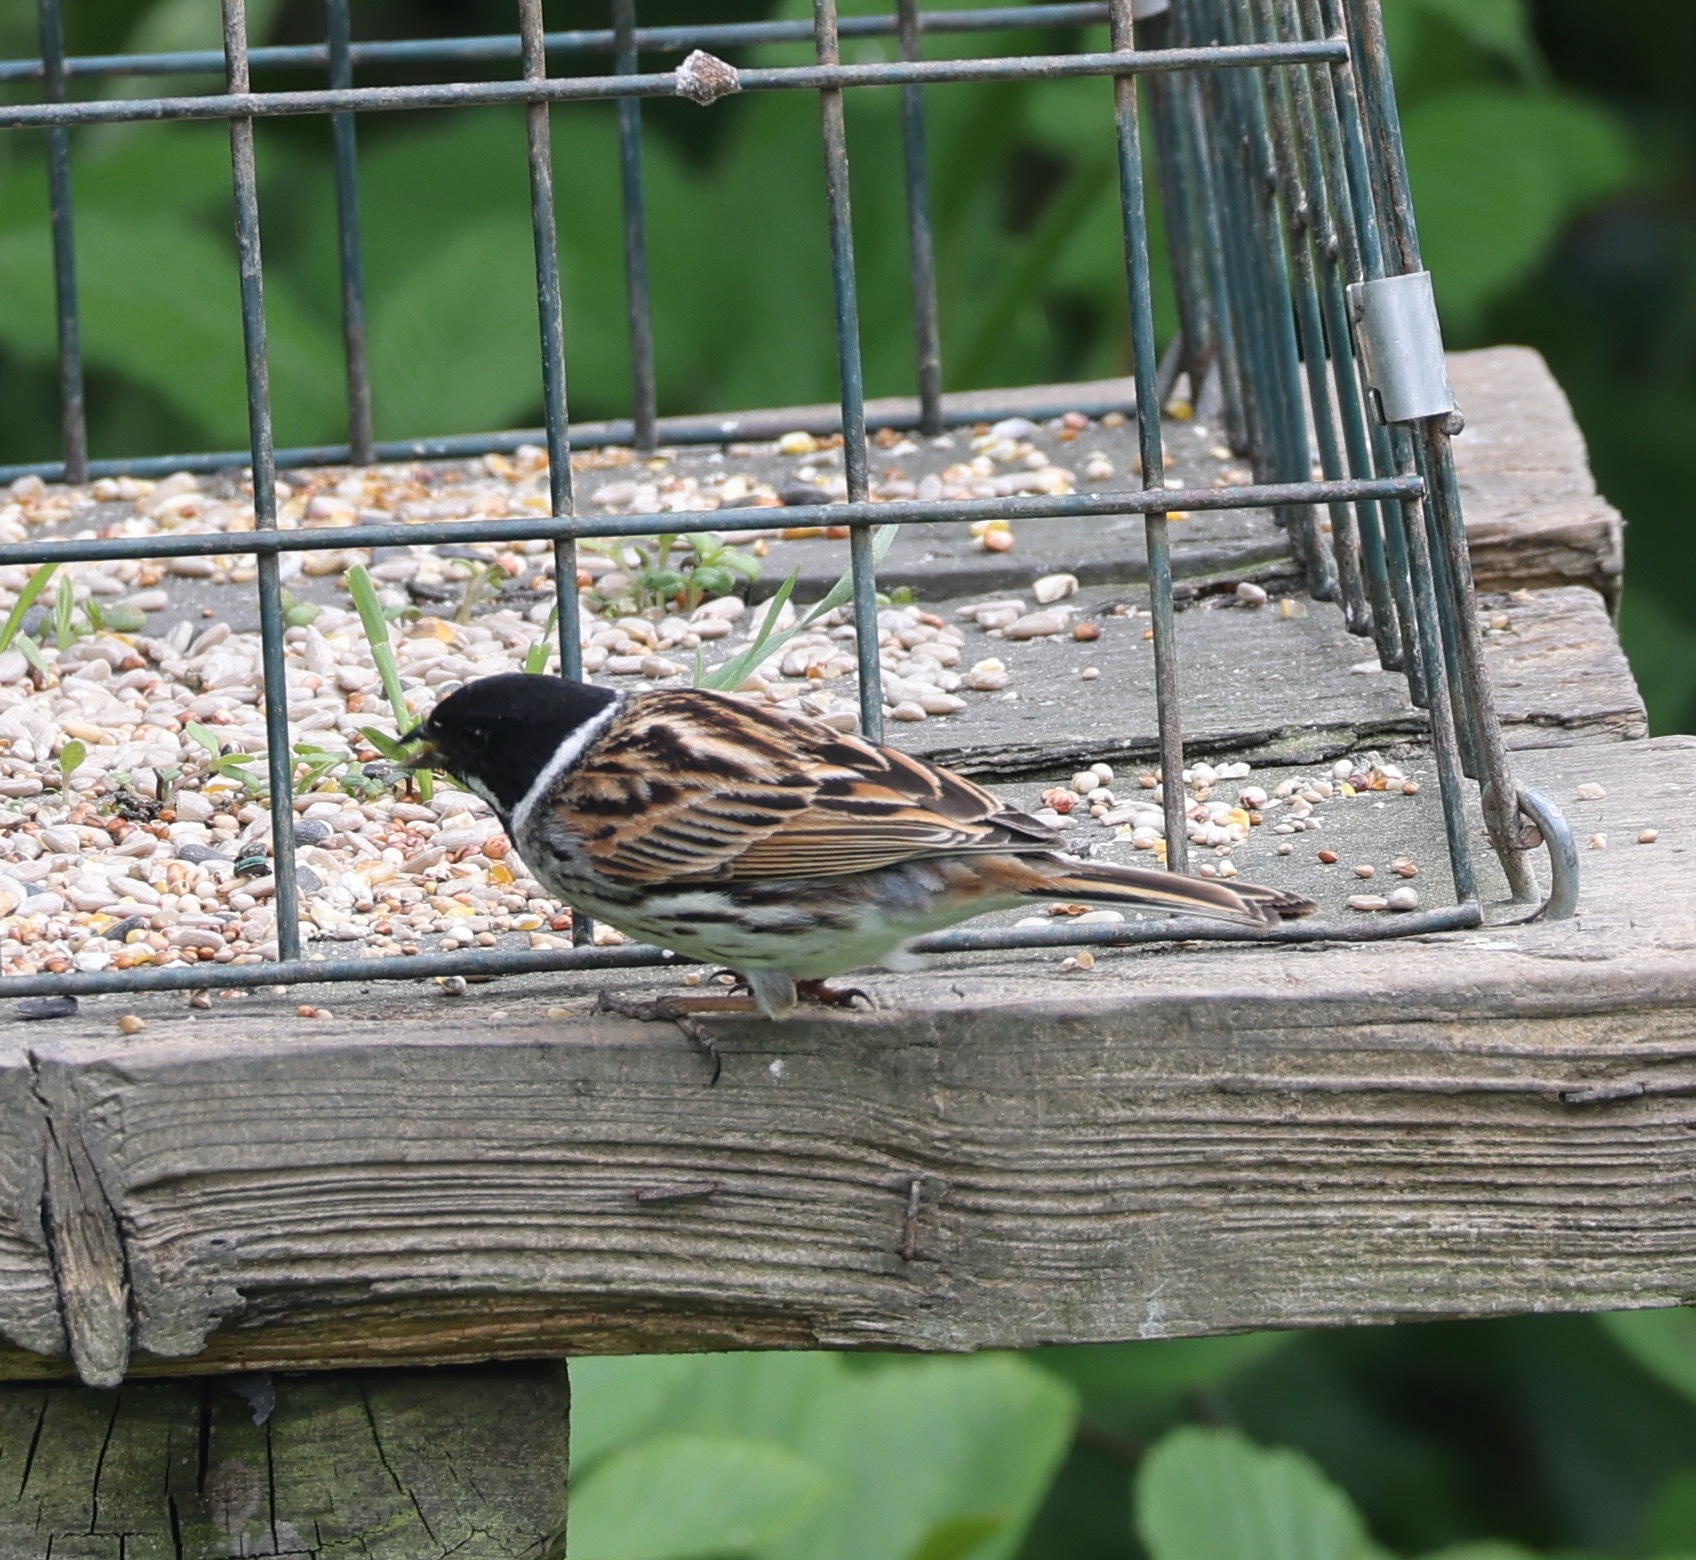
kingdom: Animalia
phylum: Chordata
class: Aves
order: Passeriformes
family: Emberizidae
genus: Emberiza
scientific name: Emberiza schoeniclus
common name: Reed bunting
